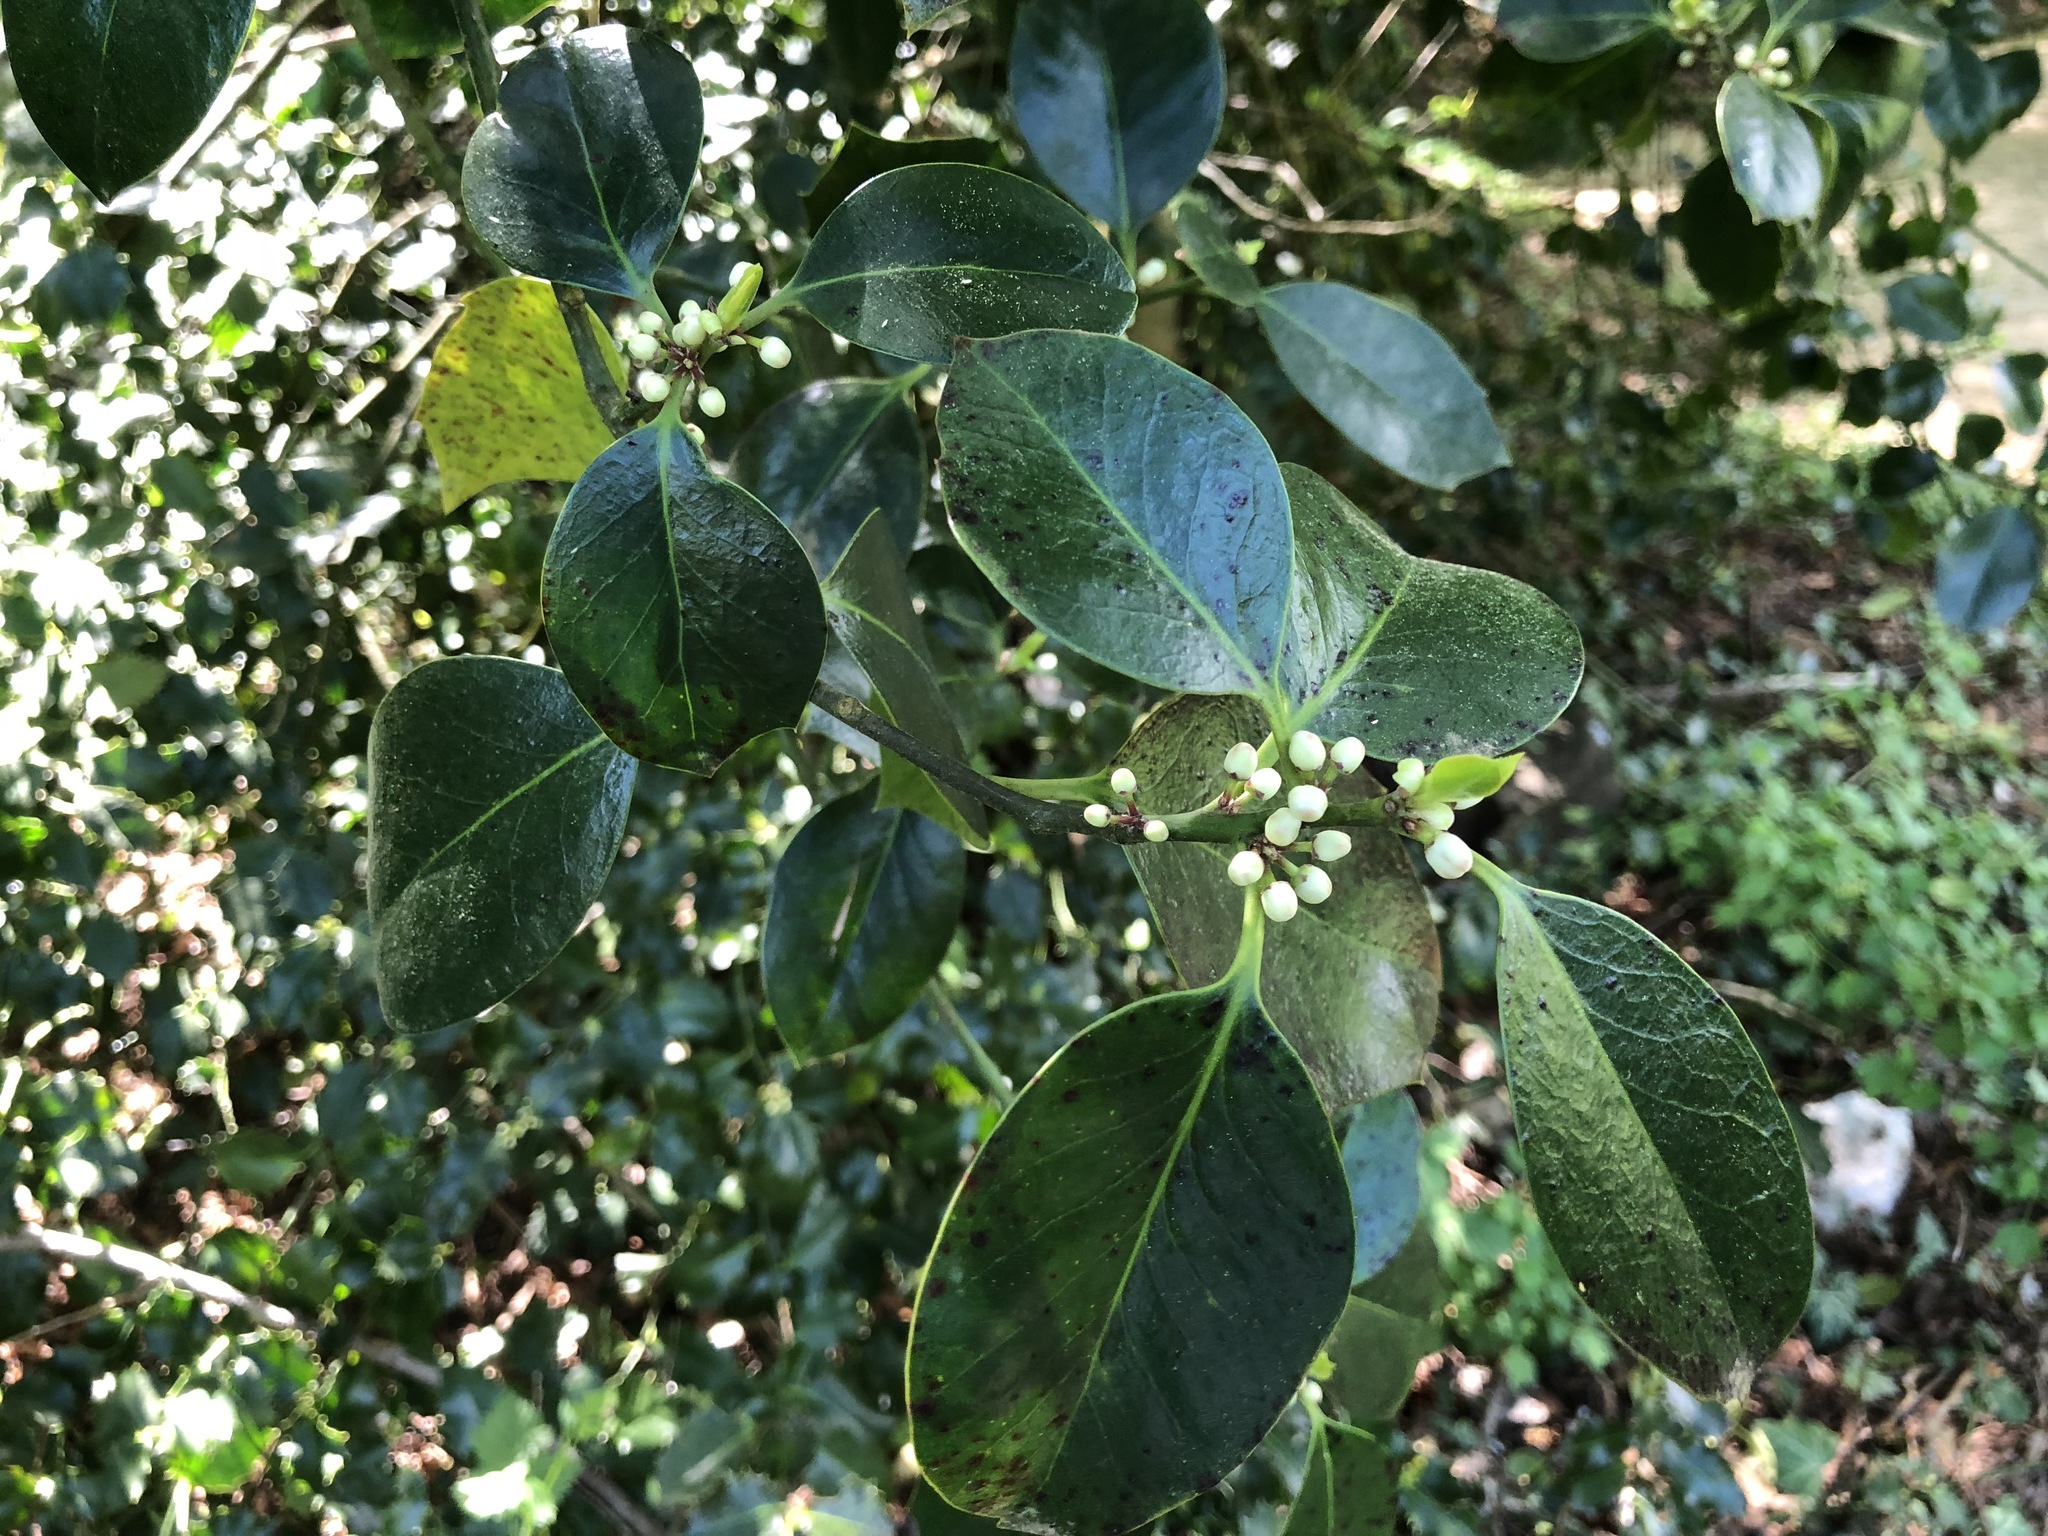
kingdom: Plantae
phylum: Tracheophyta
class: Magnoliopsida
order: Aquifoliales
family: Aquifoliaceae
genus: Ilex
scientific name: Ilex aquifolium
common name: English holly
